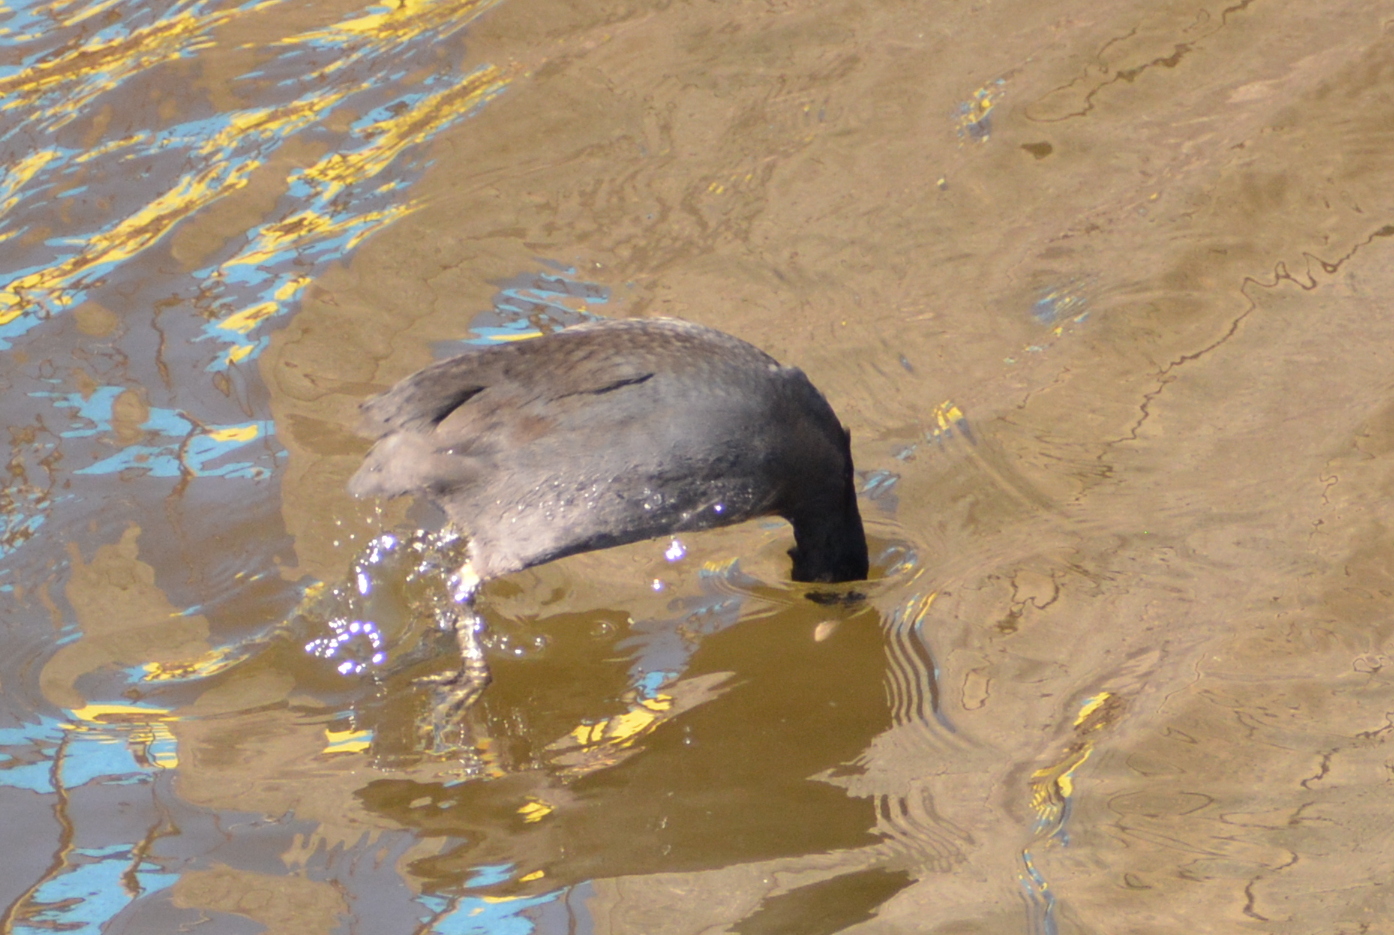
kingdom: Animalia
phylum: Chordata
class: Aves
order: Gruiformes
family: Rallidae
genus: Fulica
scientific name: Fulica atra
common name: Eurasian coot
